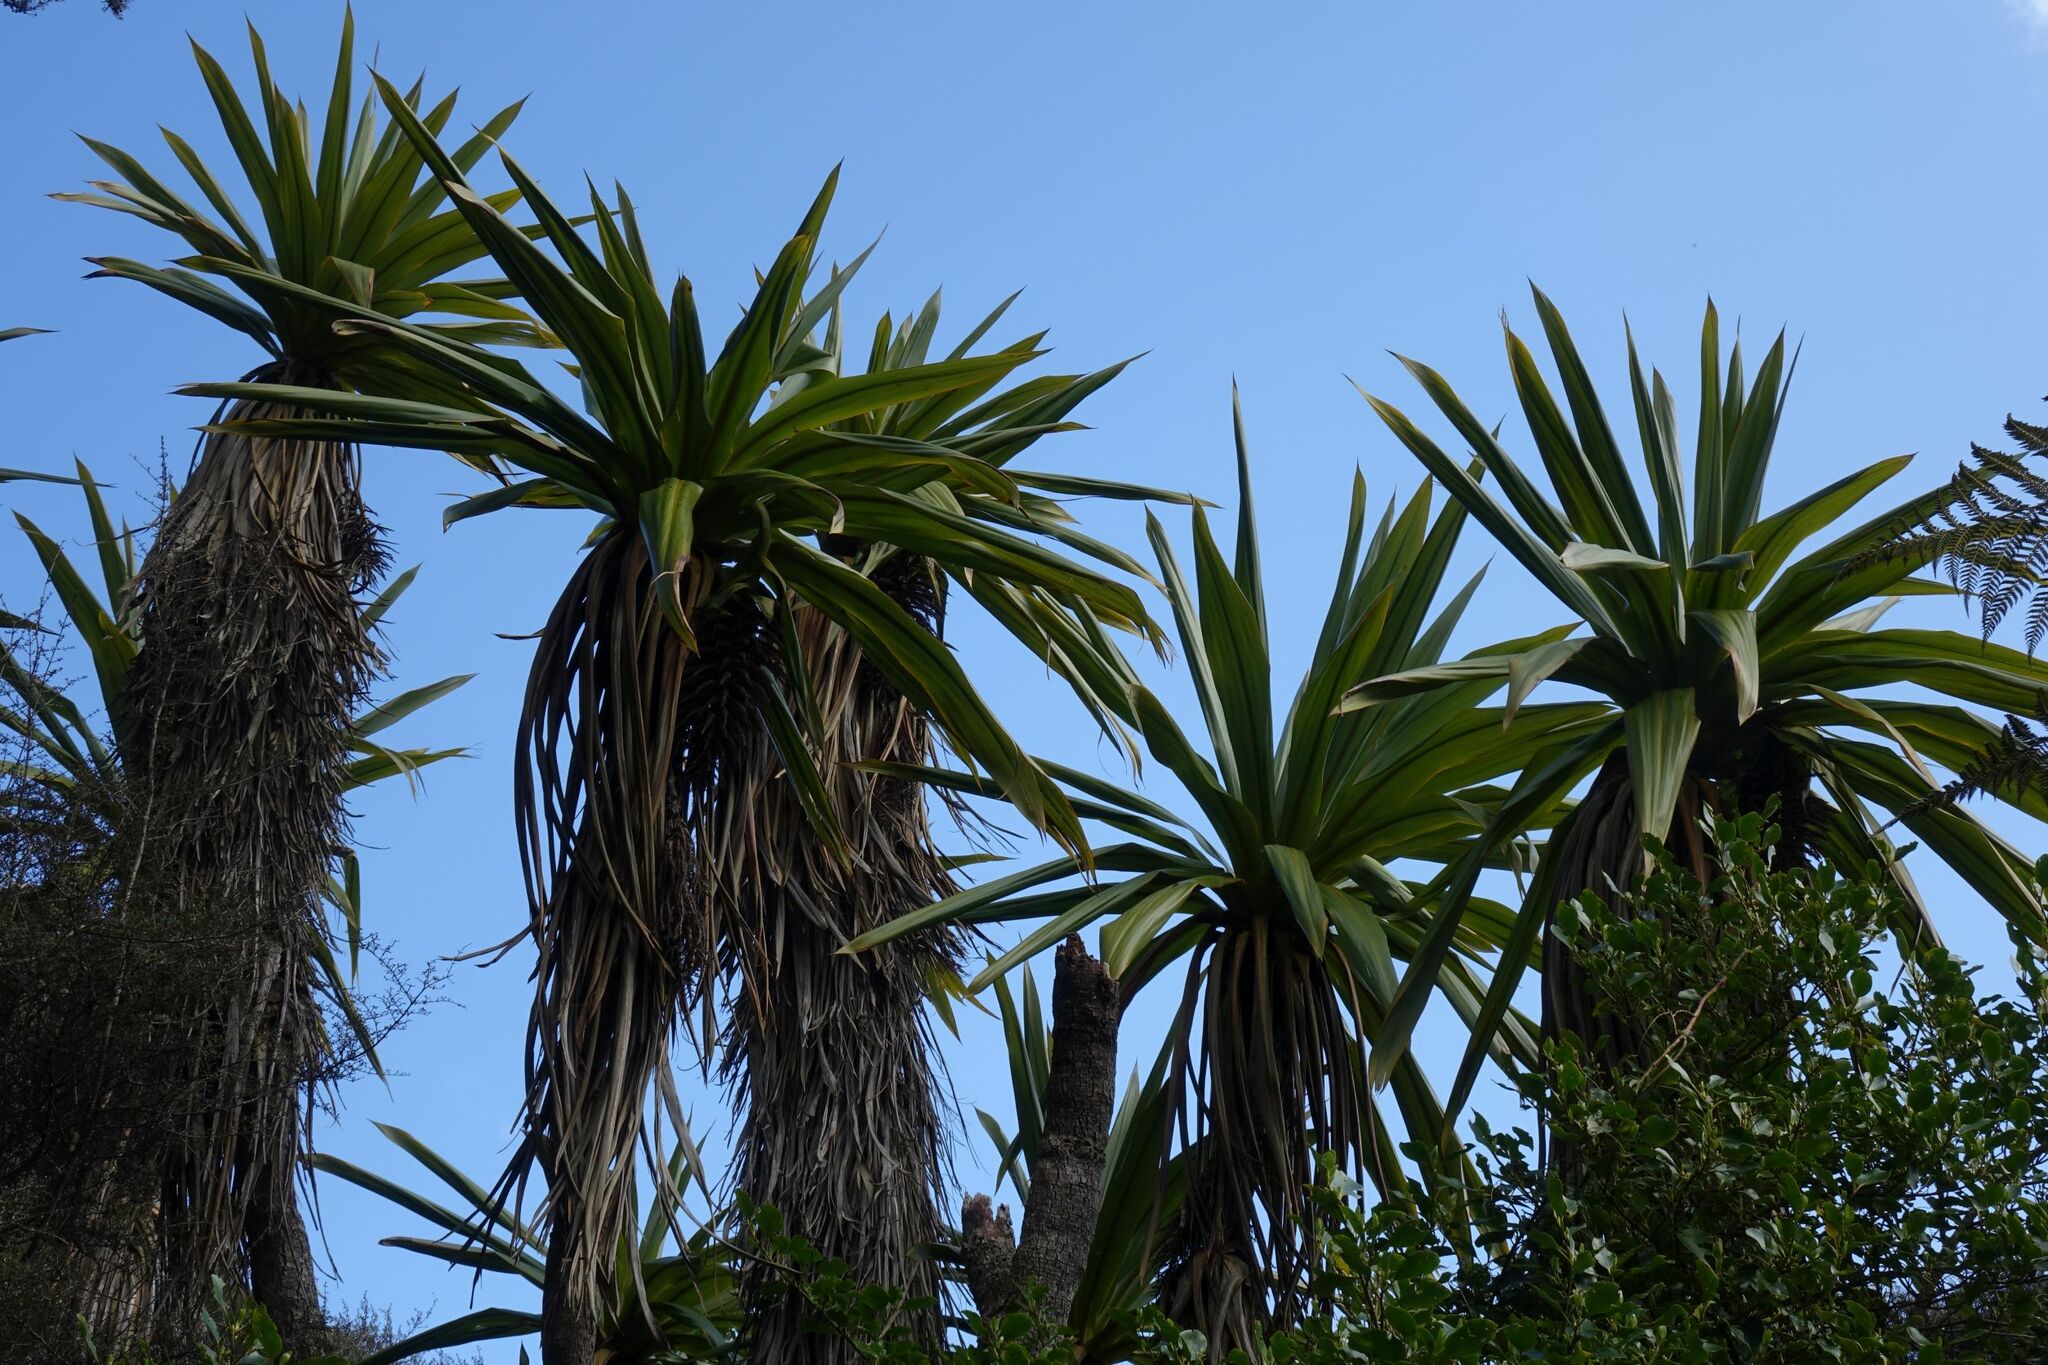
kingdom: Plantae
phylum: Tracheophyta
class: Liliopsida
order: Asparagales
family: Asparagaceae
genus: Cordyline
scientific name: Cordyline indivisa
